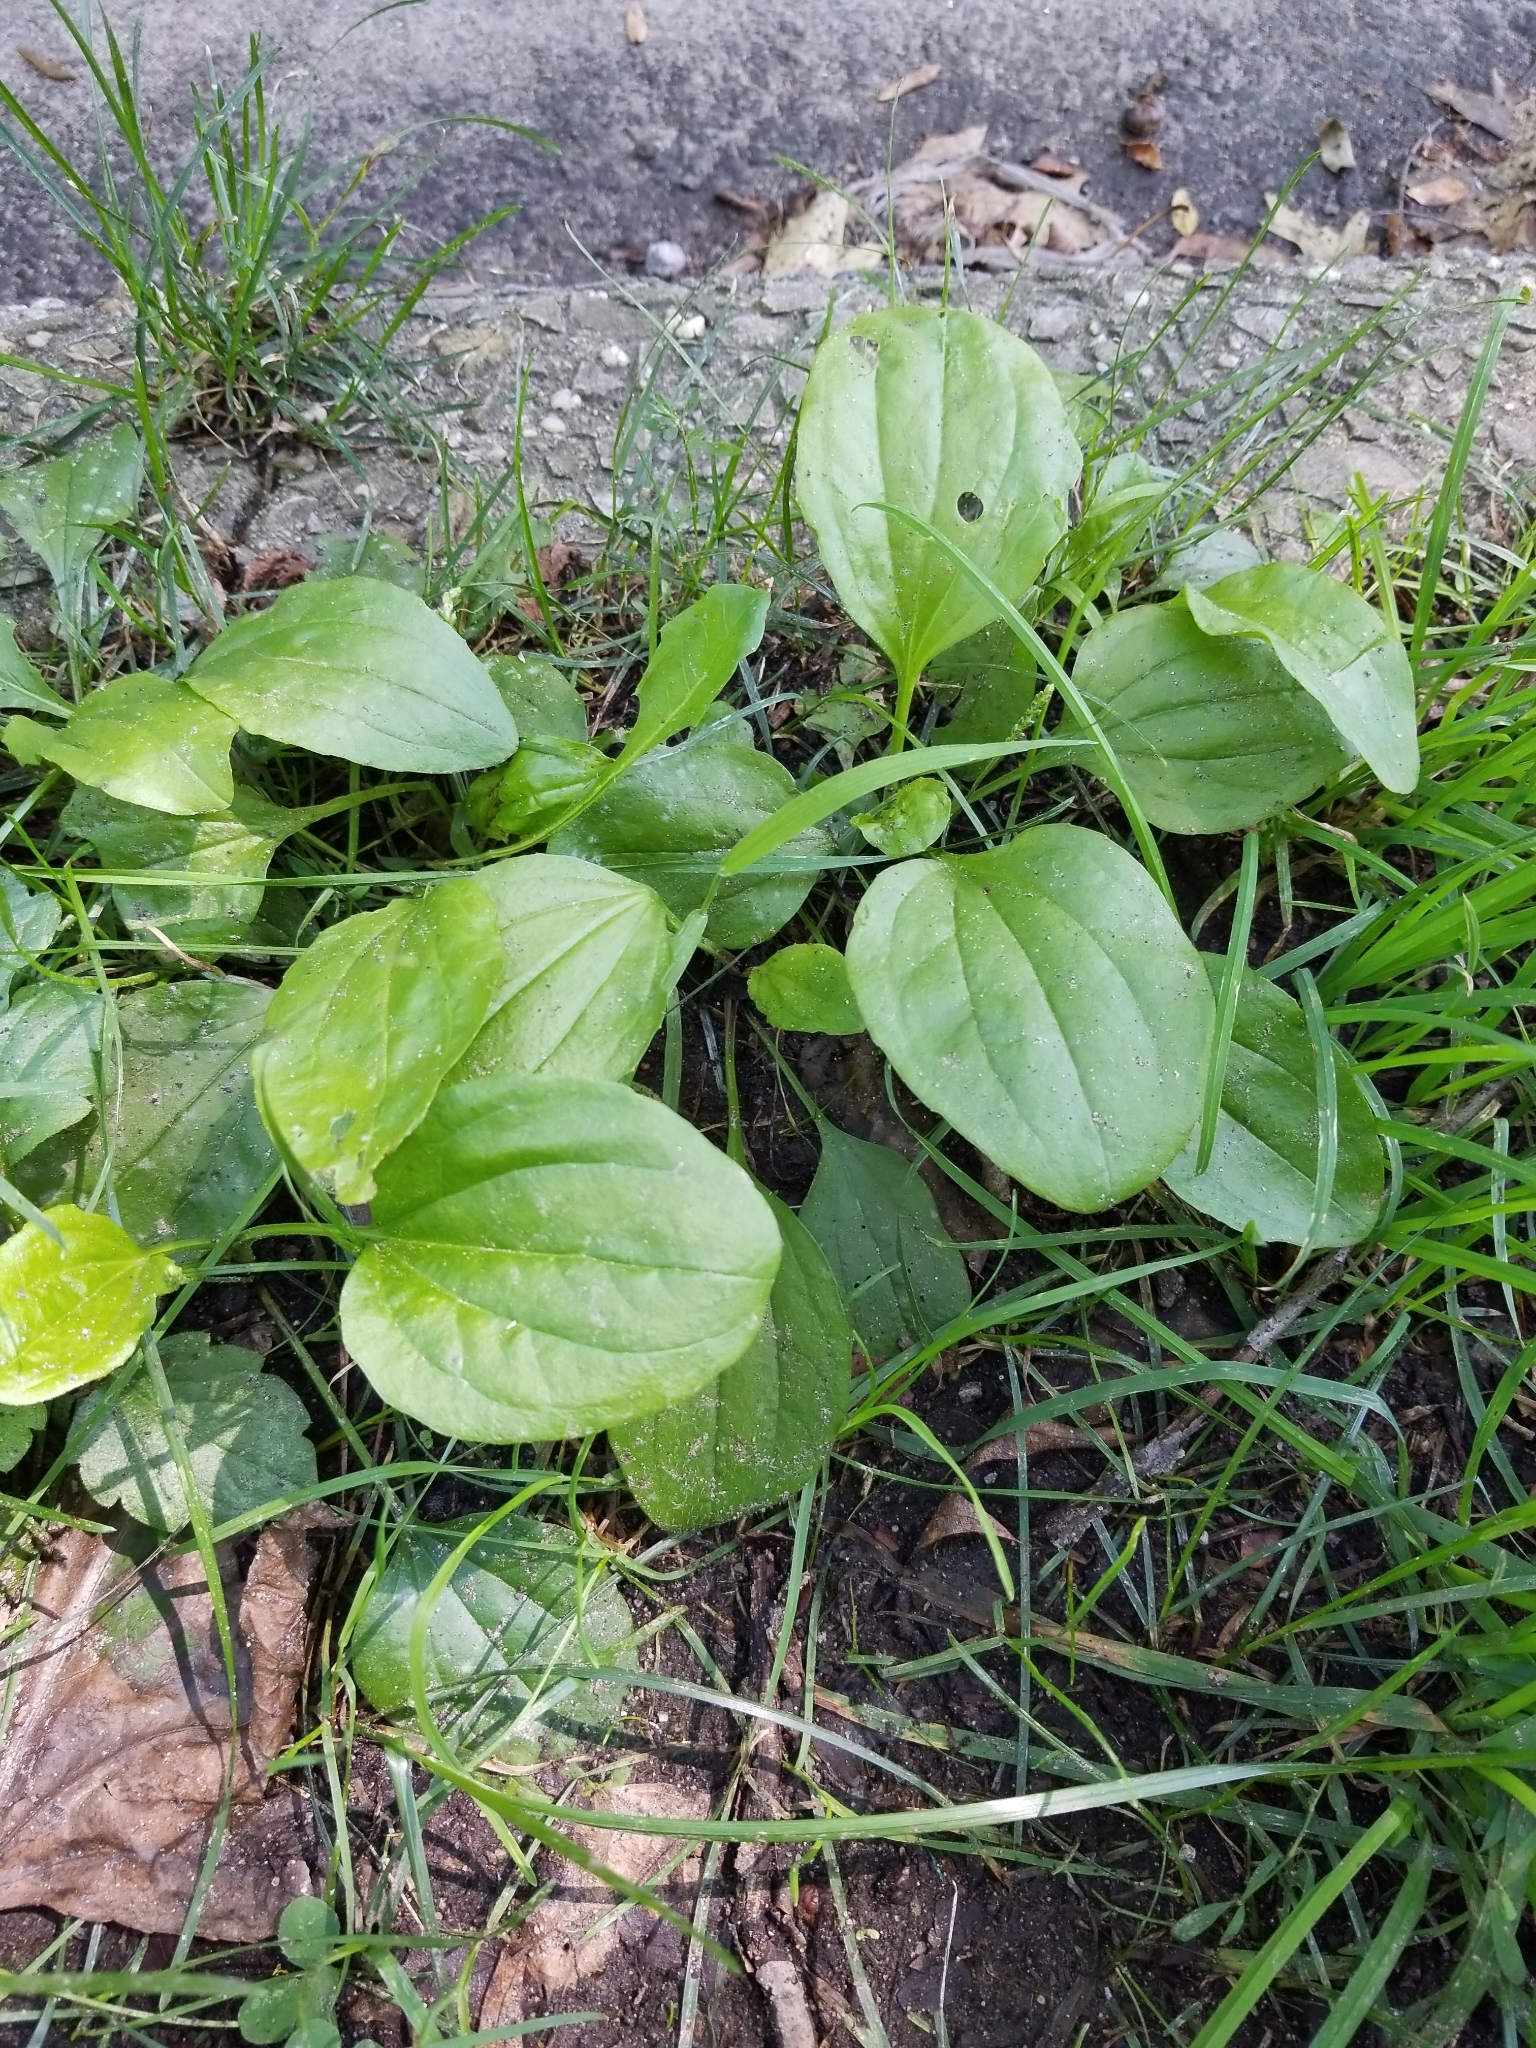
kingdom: Plantae
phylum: Tracheophyta
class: Magnoliopsida
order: Lamiales
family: Plantaginaceae
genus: Plantago
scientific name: Plantago major
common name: Common plantain
